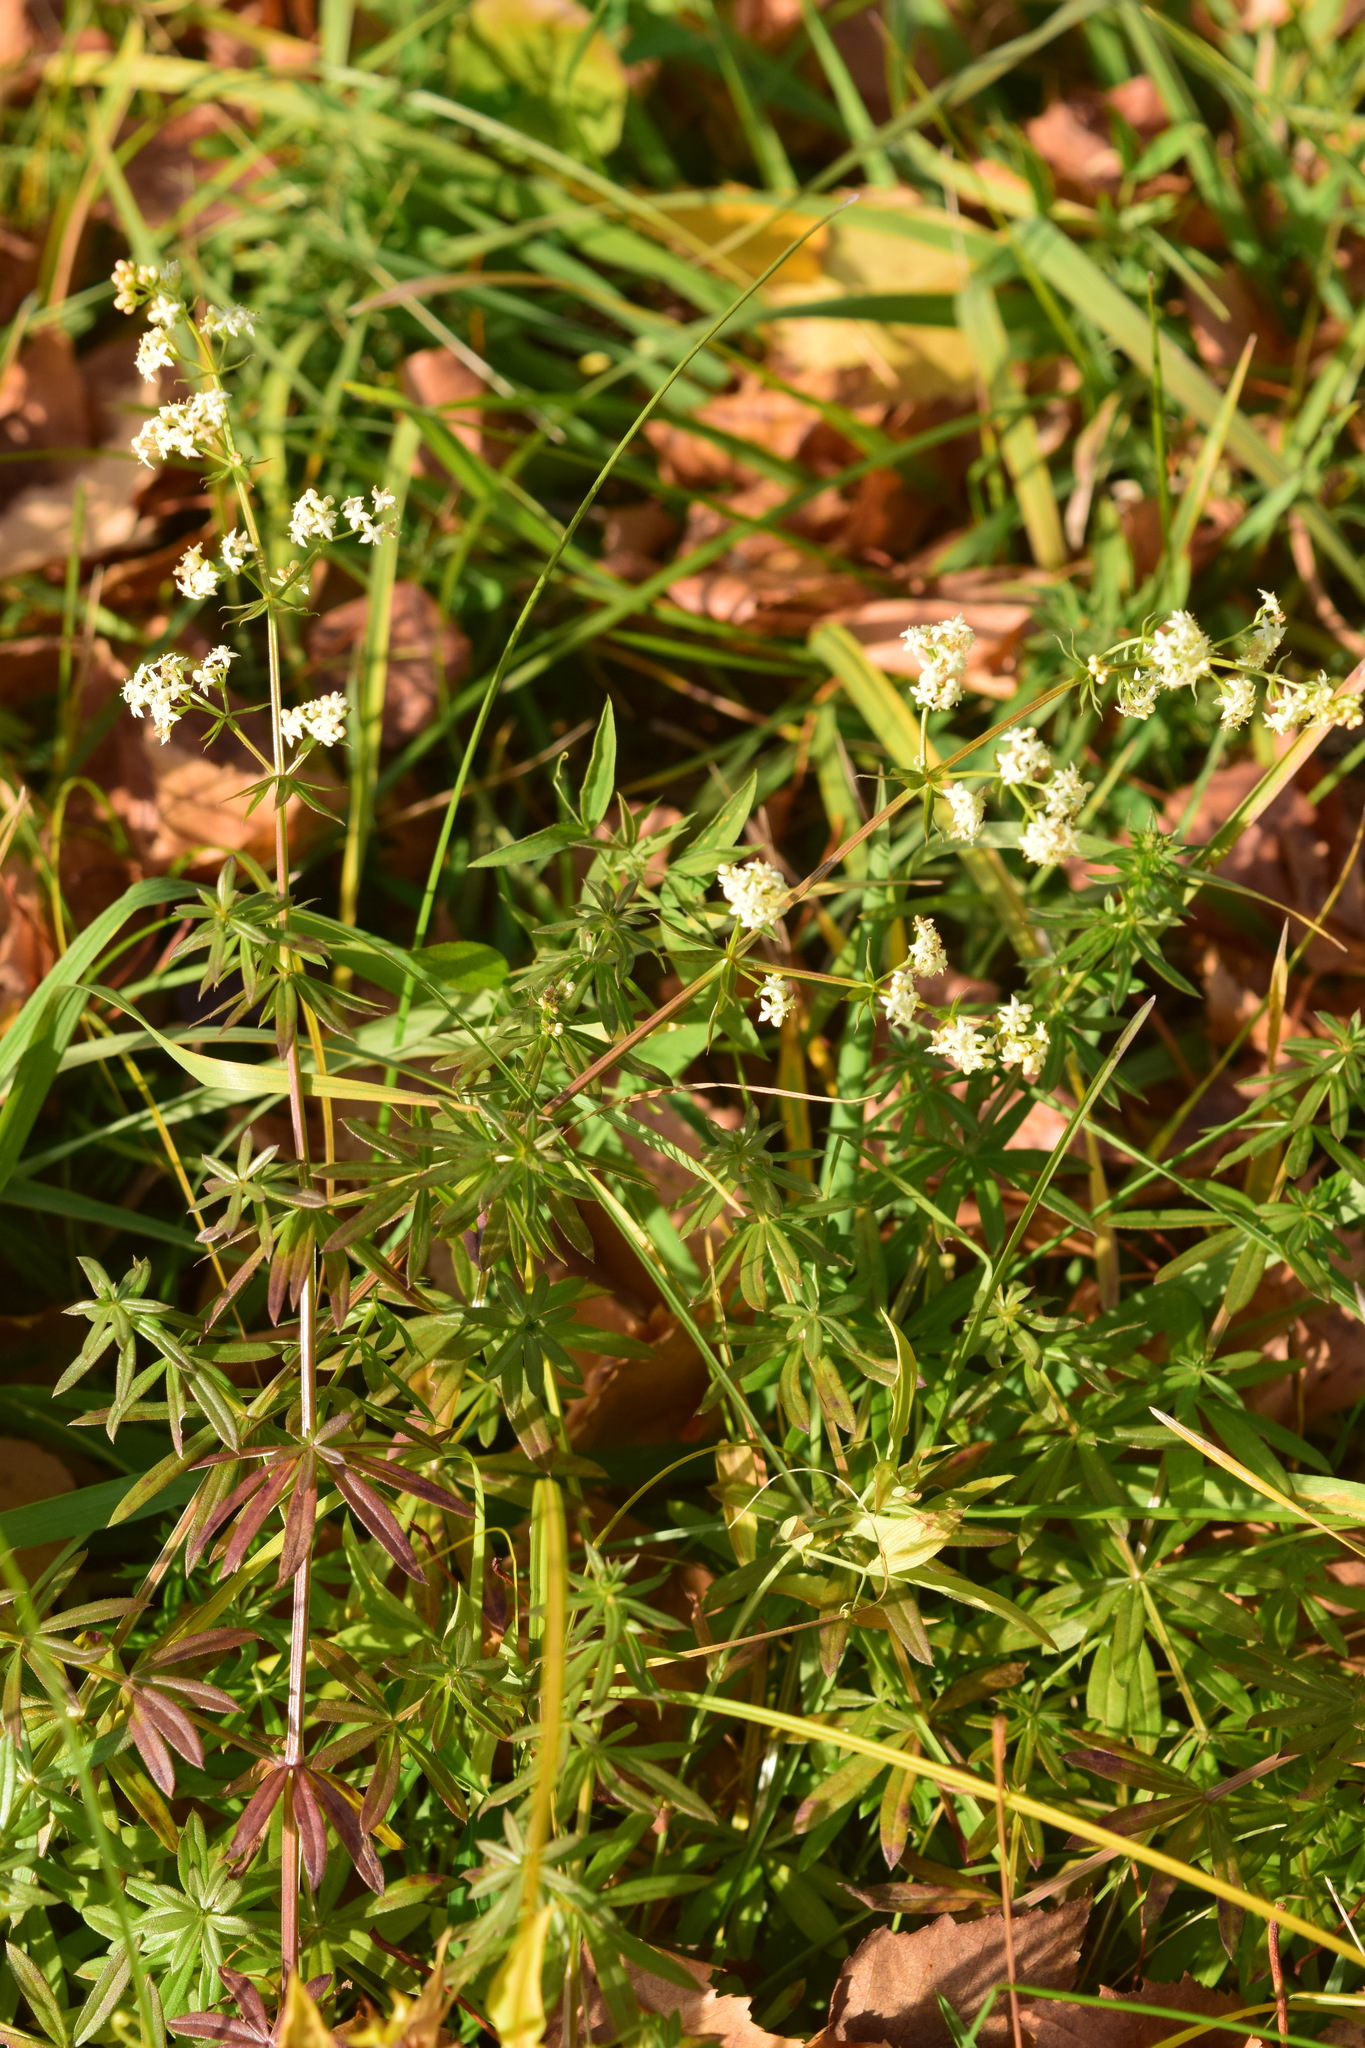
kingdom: Plantae
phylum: Tracheophyta
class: Magnoliopsida
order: Gentianales
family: Rubiaceae
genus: Galium
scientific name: Galium mollugo
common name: Hedge bedstraw
